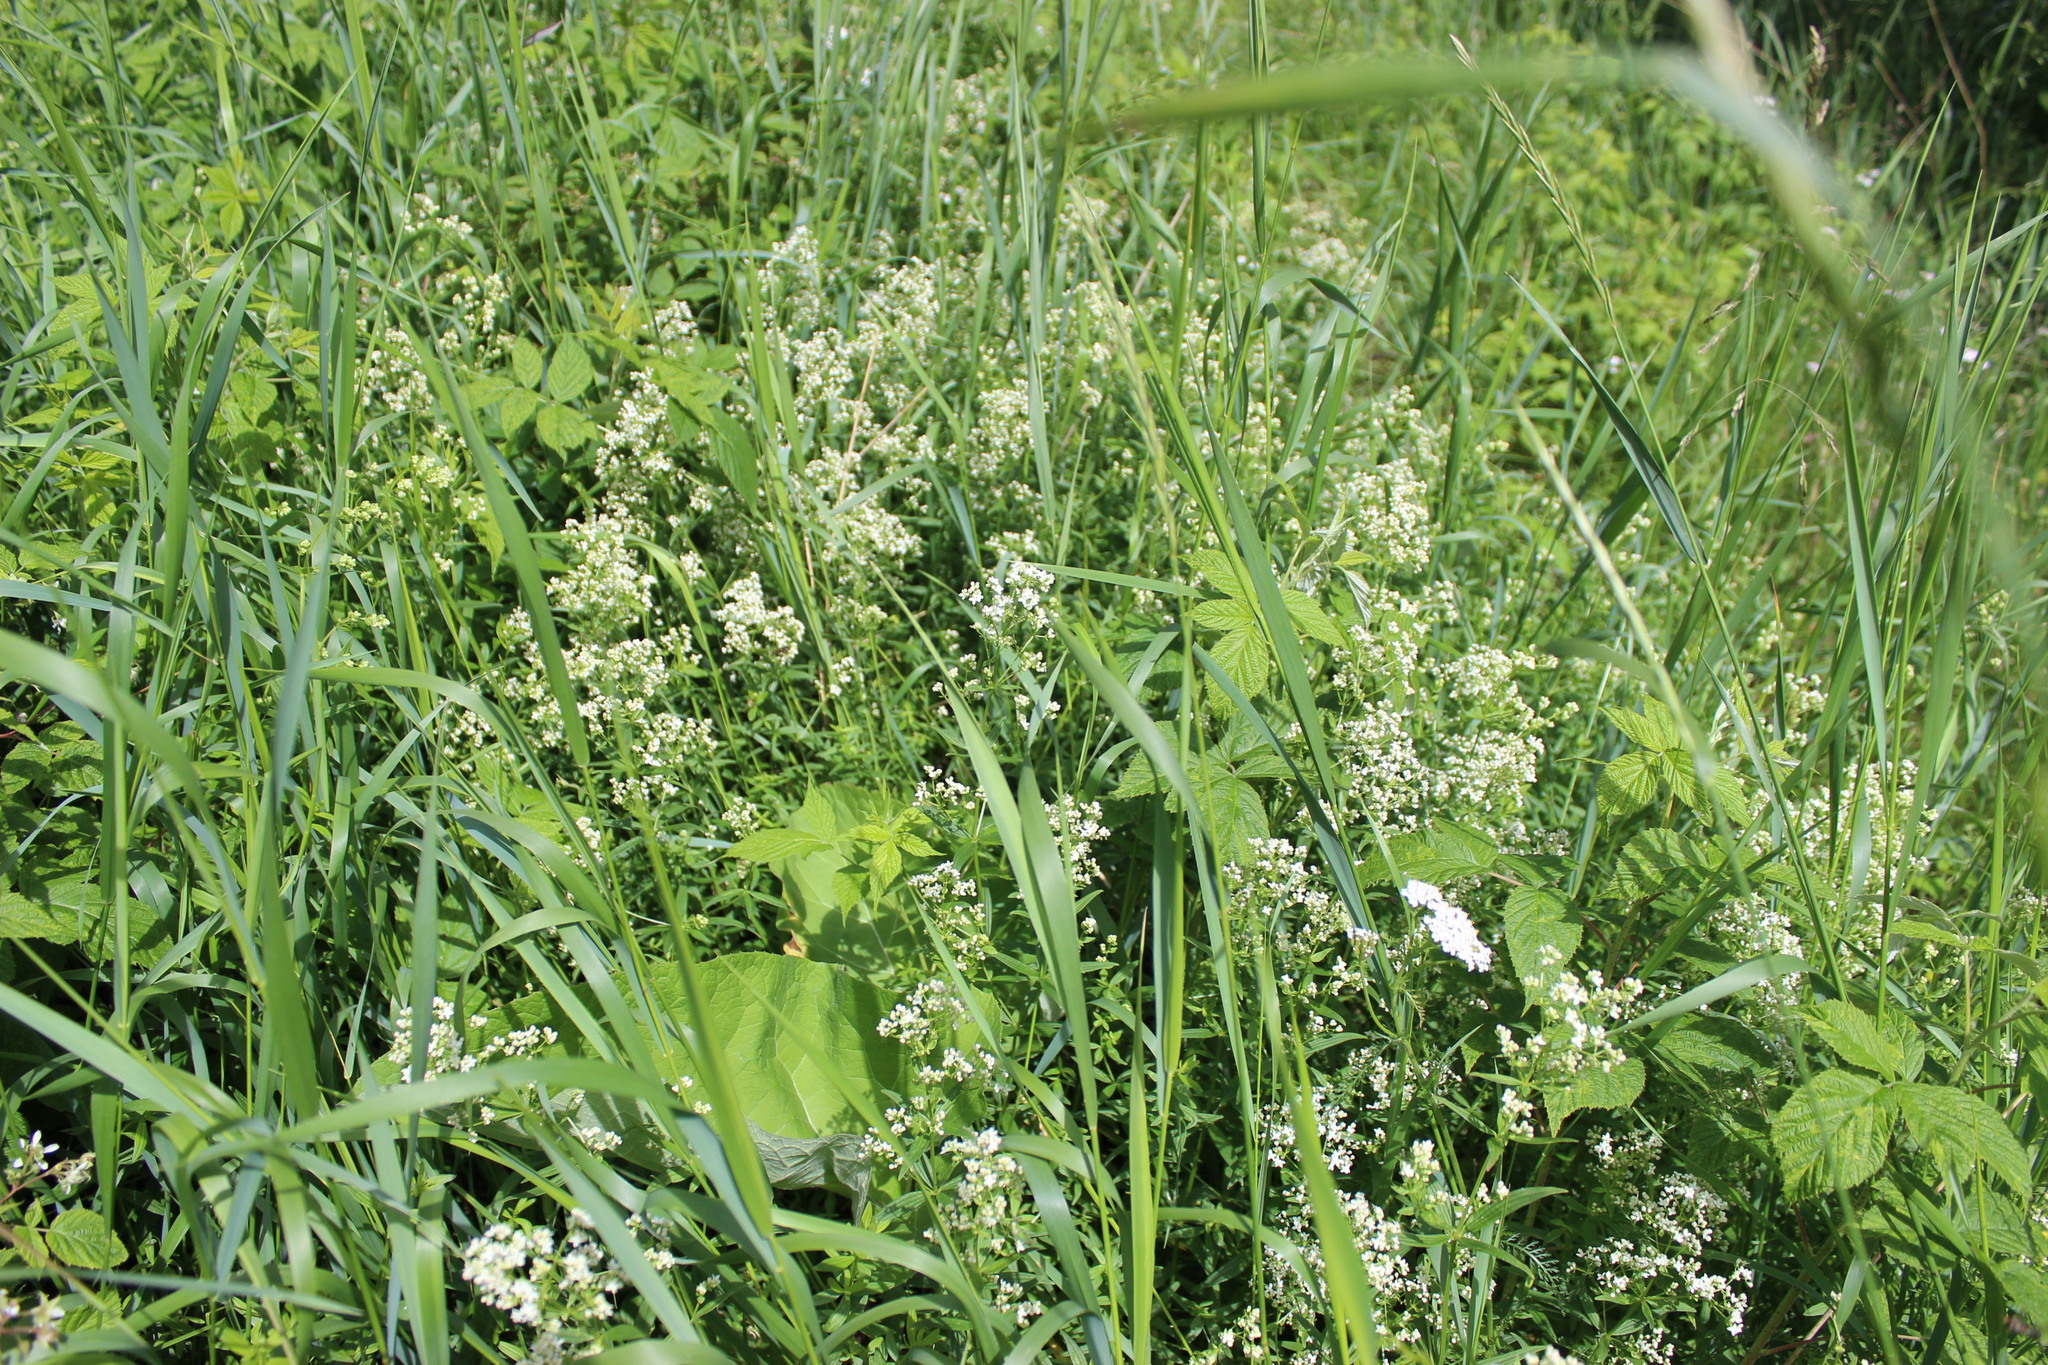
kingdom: Plantae
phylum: Tracheophyta
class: Magnoliopsida
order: Gentianales
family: Rubiaceae
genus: Galium
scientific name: Galium boreale
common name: Northern bedstraw
